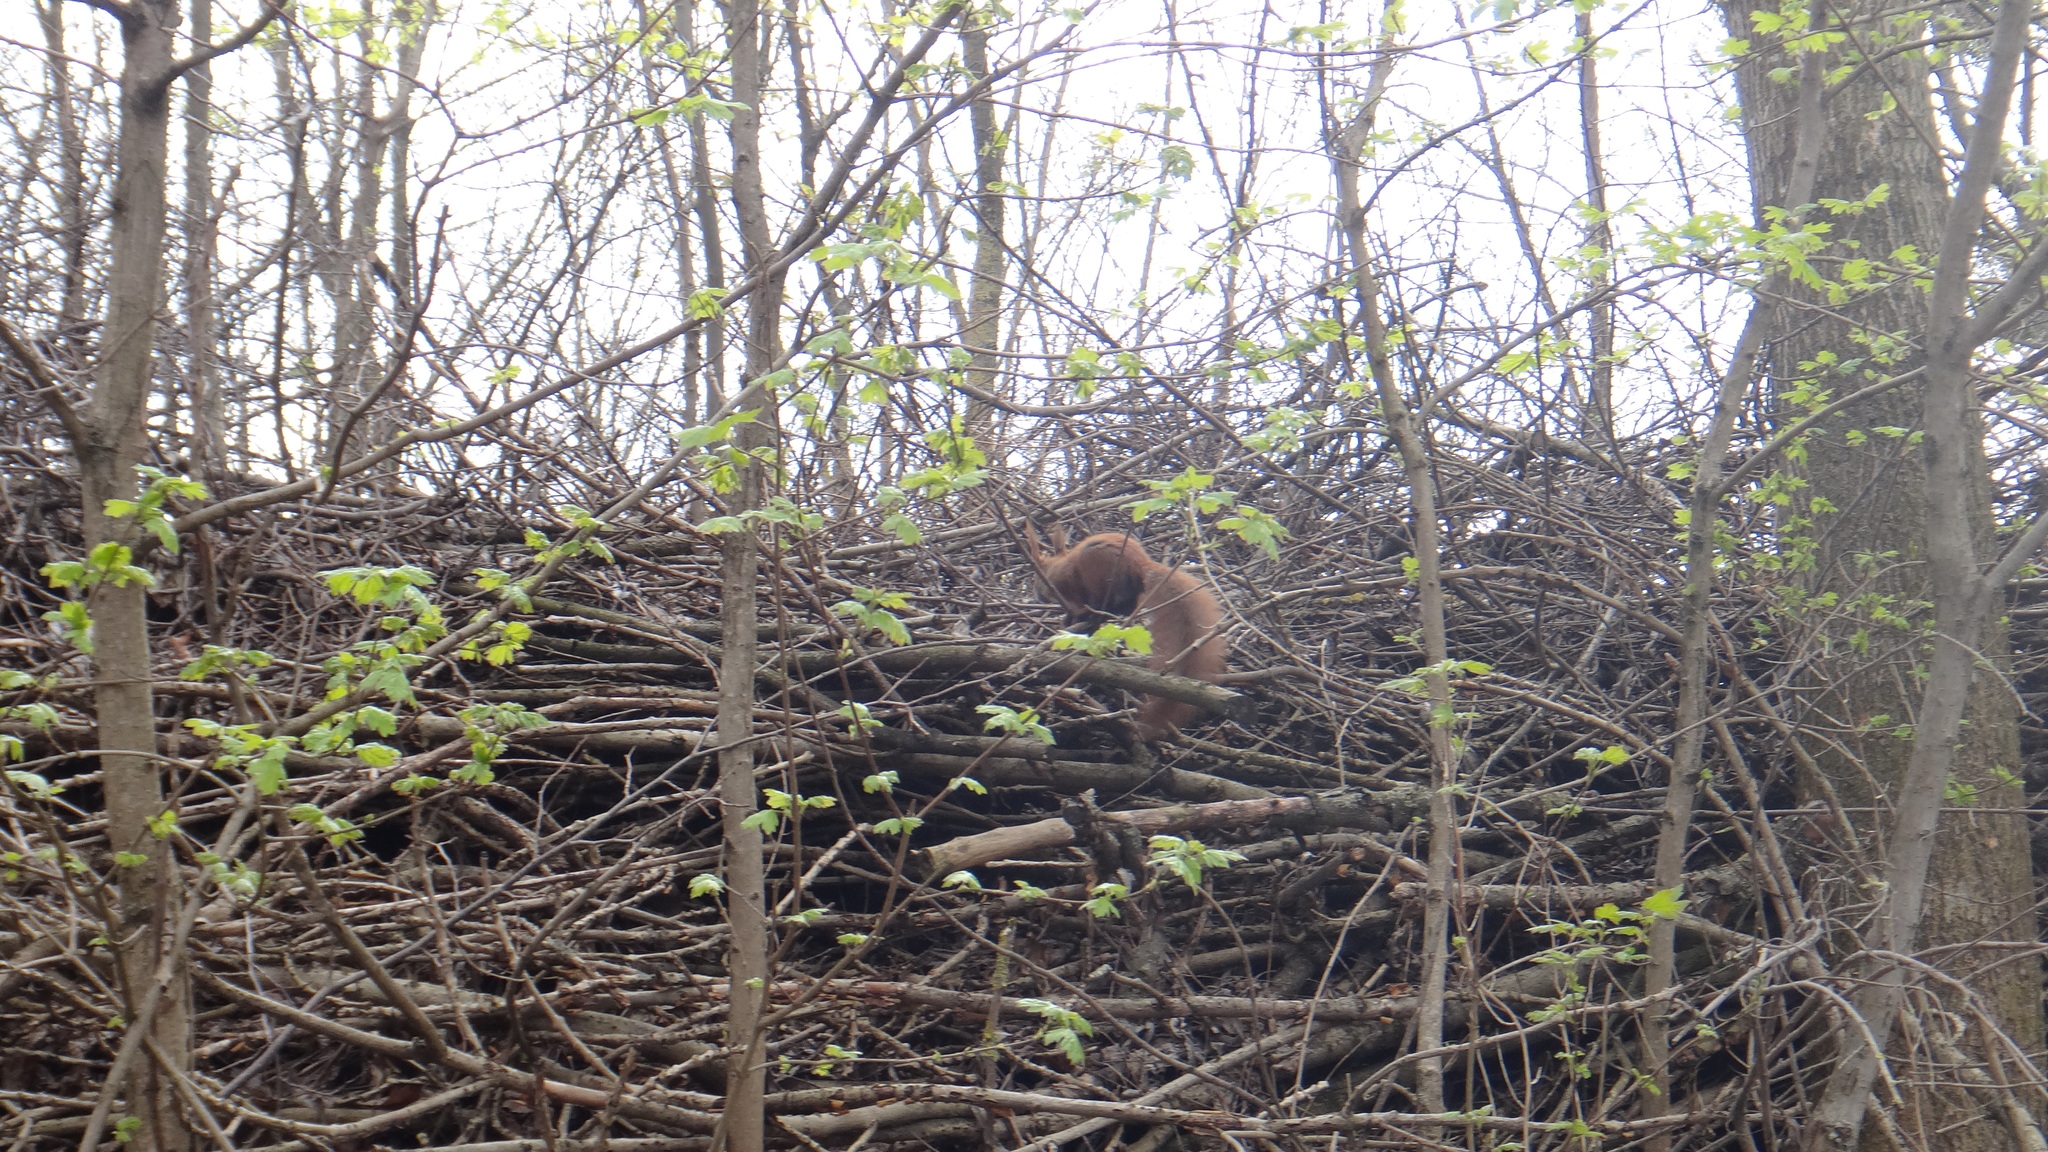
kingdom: Animalia
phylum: Chordata
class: Mammalia
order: Rodentia
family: Sciuridae
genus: Sciurus
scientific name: Sciurus vulgaris
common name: Eurasian red squirrel
